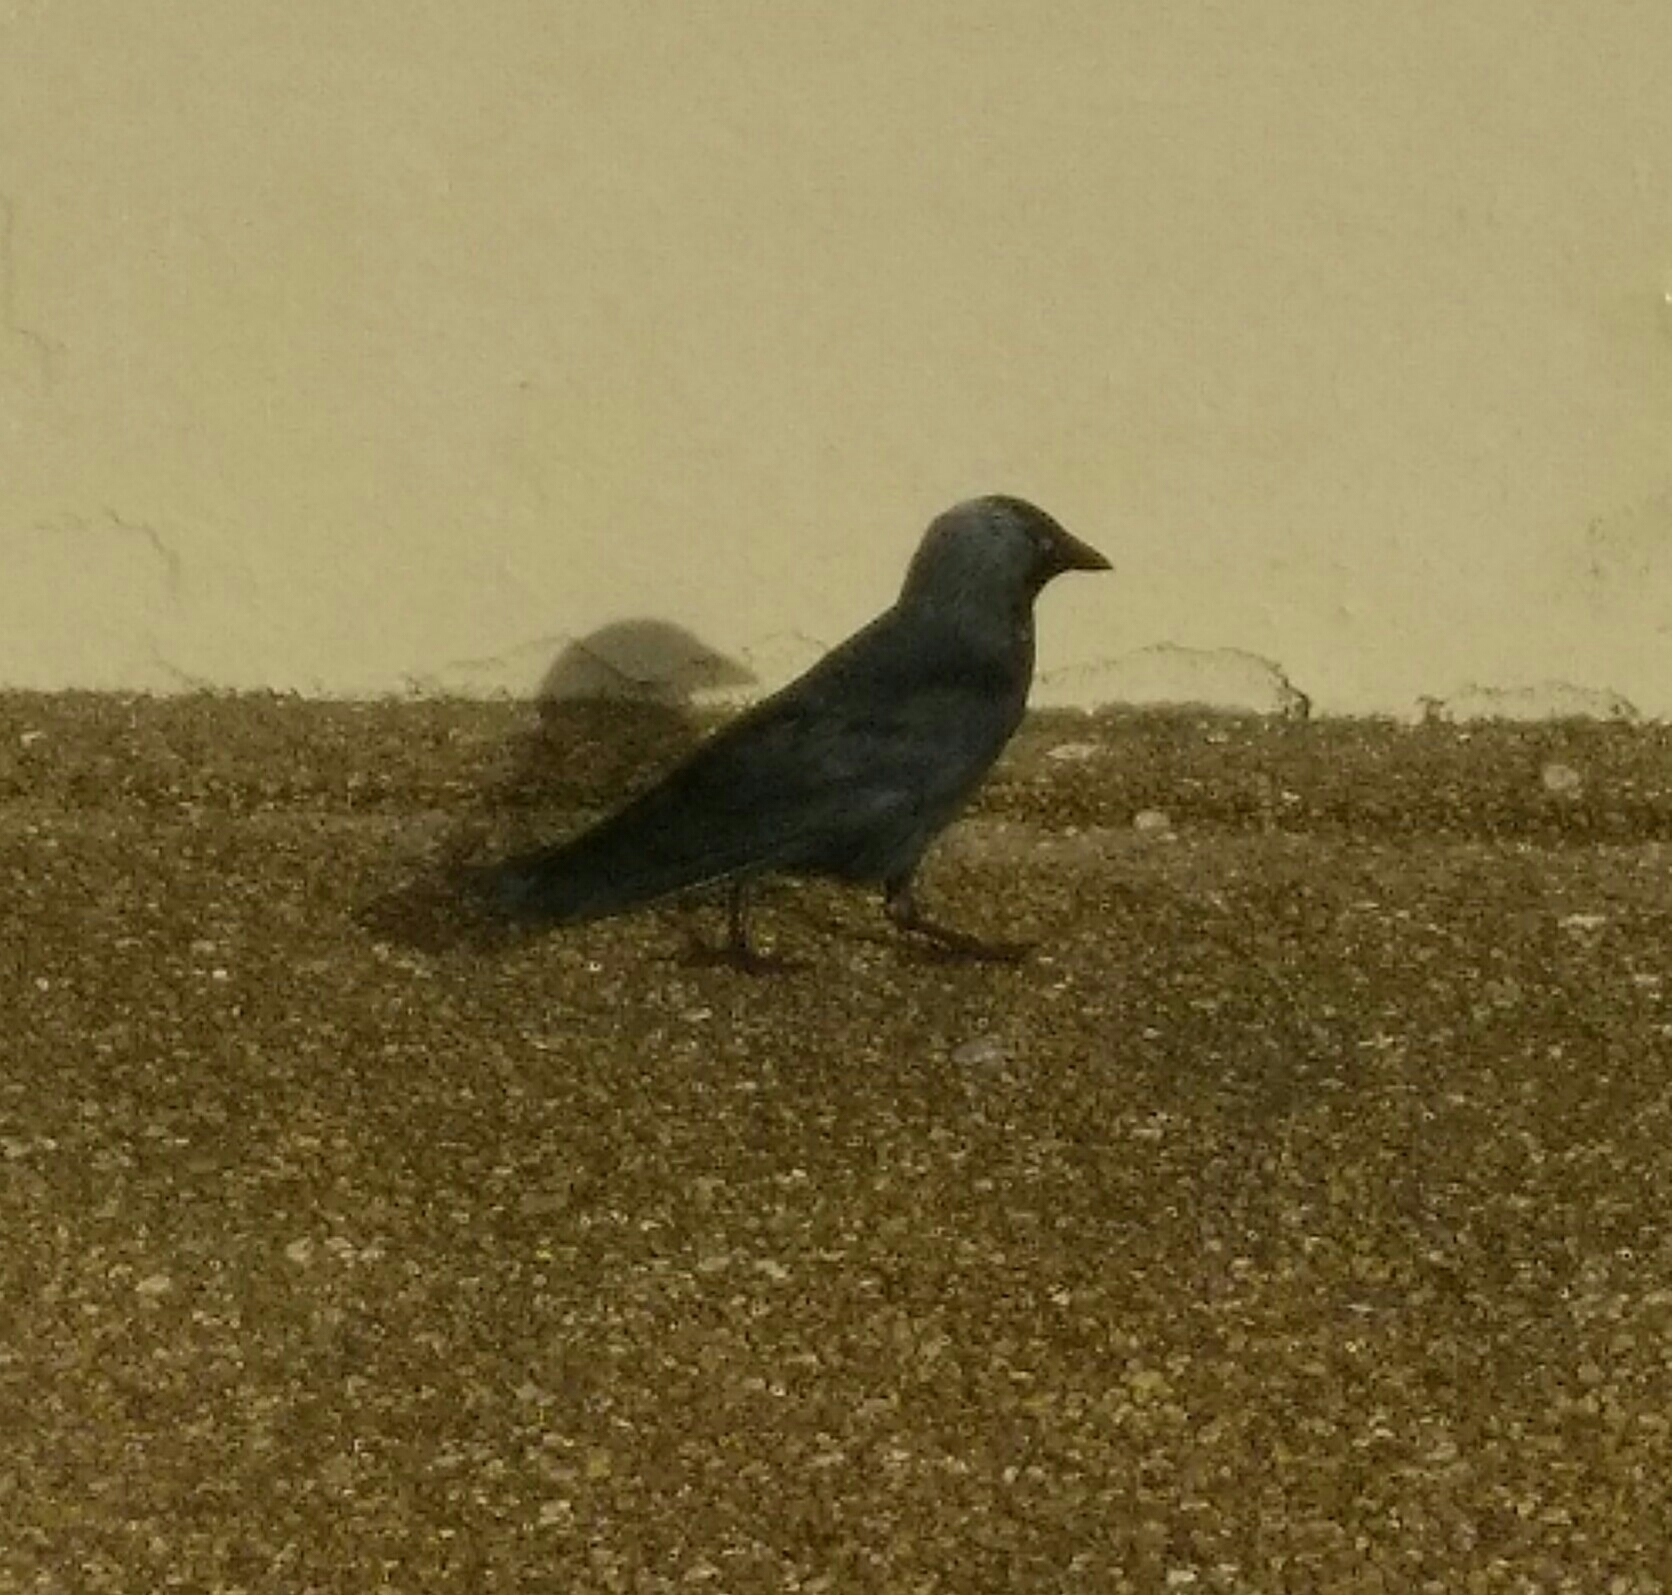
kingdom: Animalia
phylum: Chordata
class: Aves
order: Passeriformes
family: Corvidae
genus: Coloeus
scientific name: Coloeus monedula
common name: Western jackdaw
